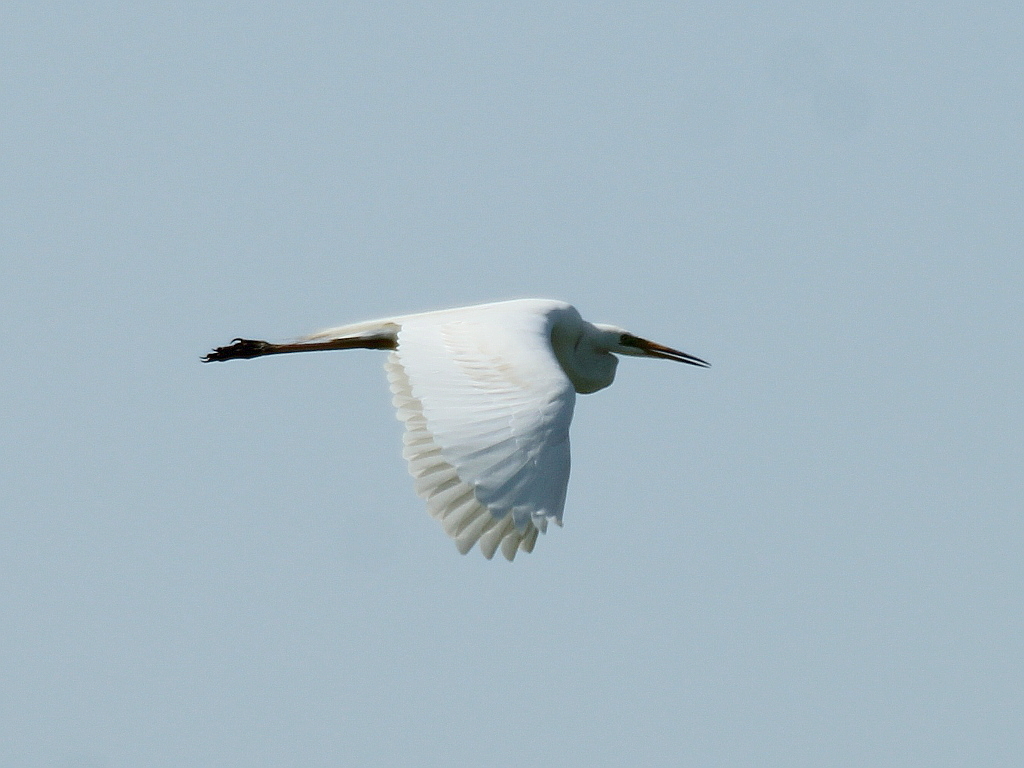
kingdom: Animalia
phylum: Chordata
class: Aves
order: Pelecaniformes
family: Ardeidae
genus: Ardea
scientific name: Ardea alba
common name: Great egret
